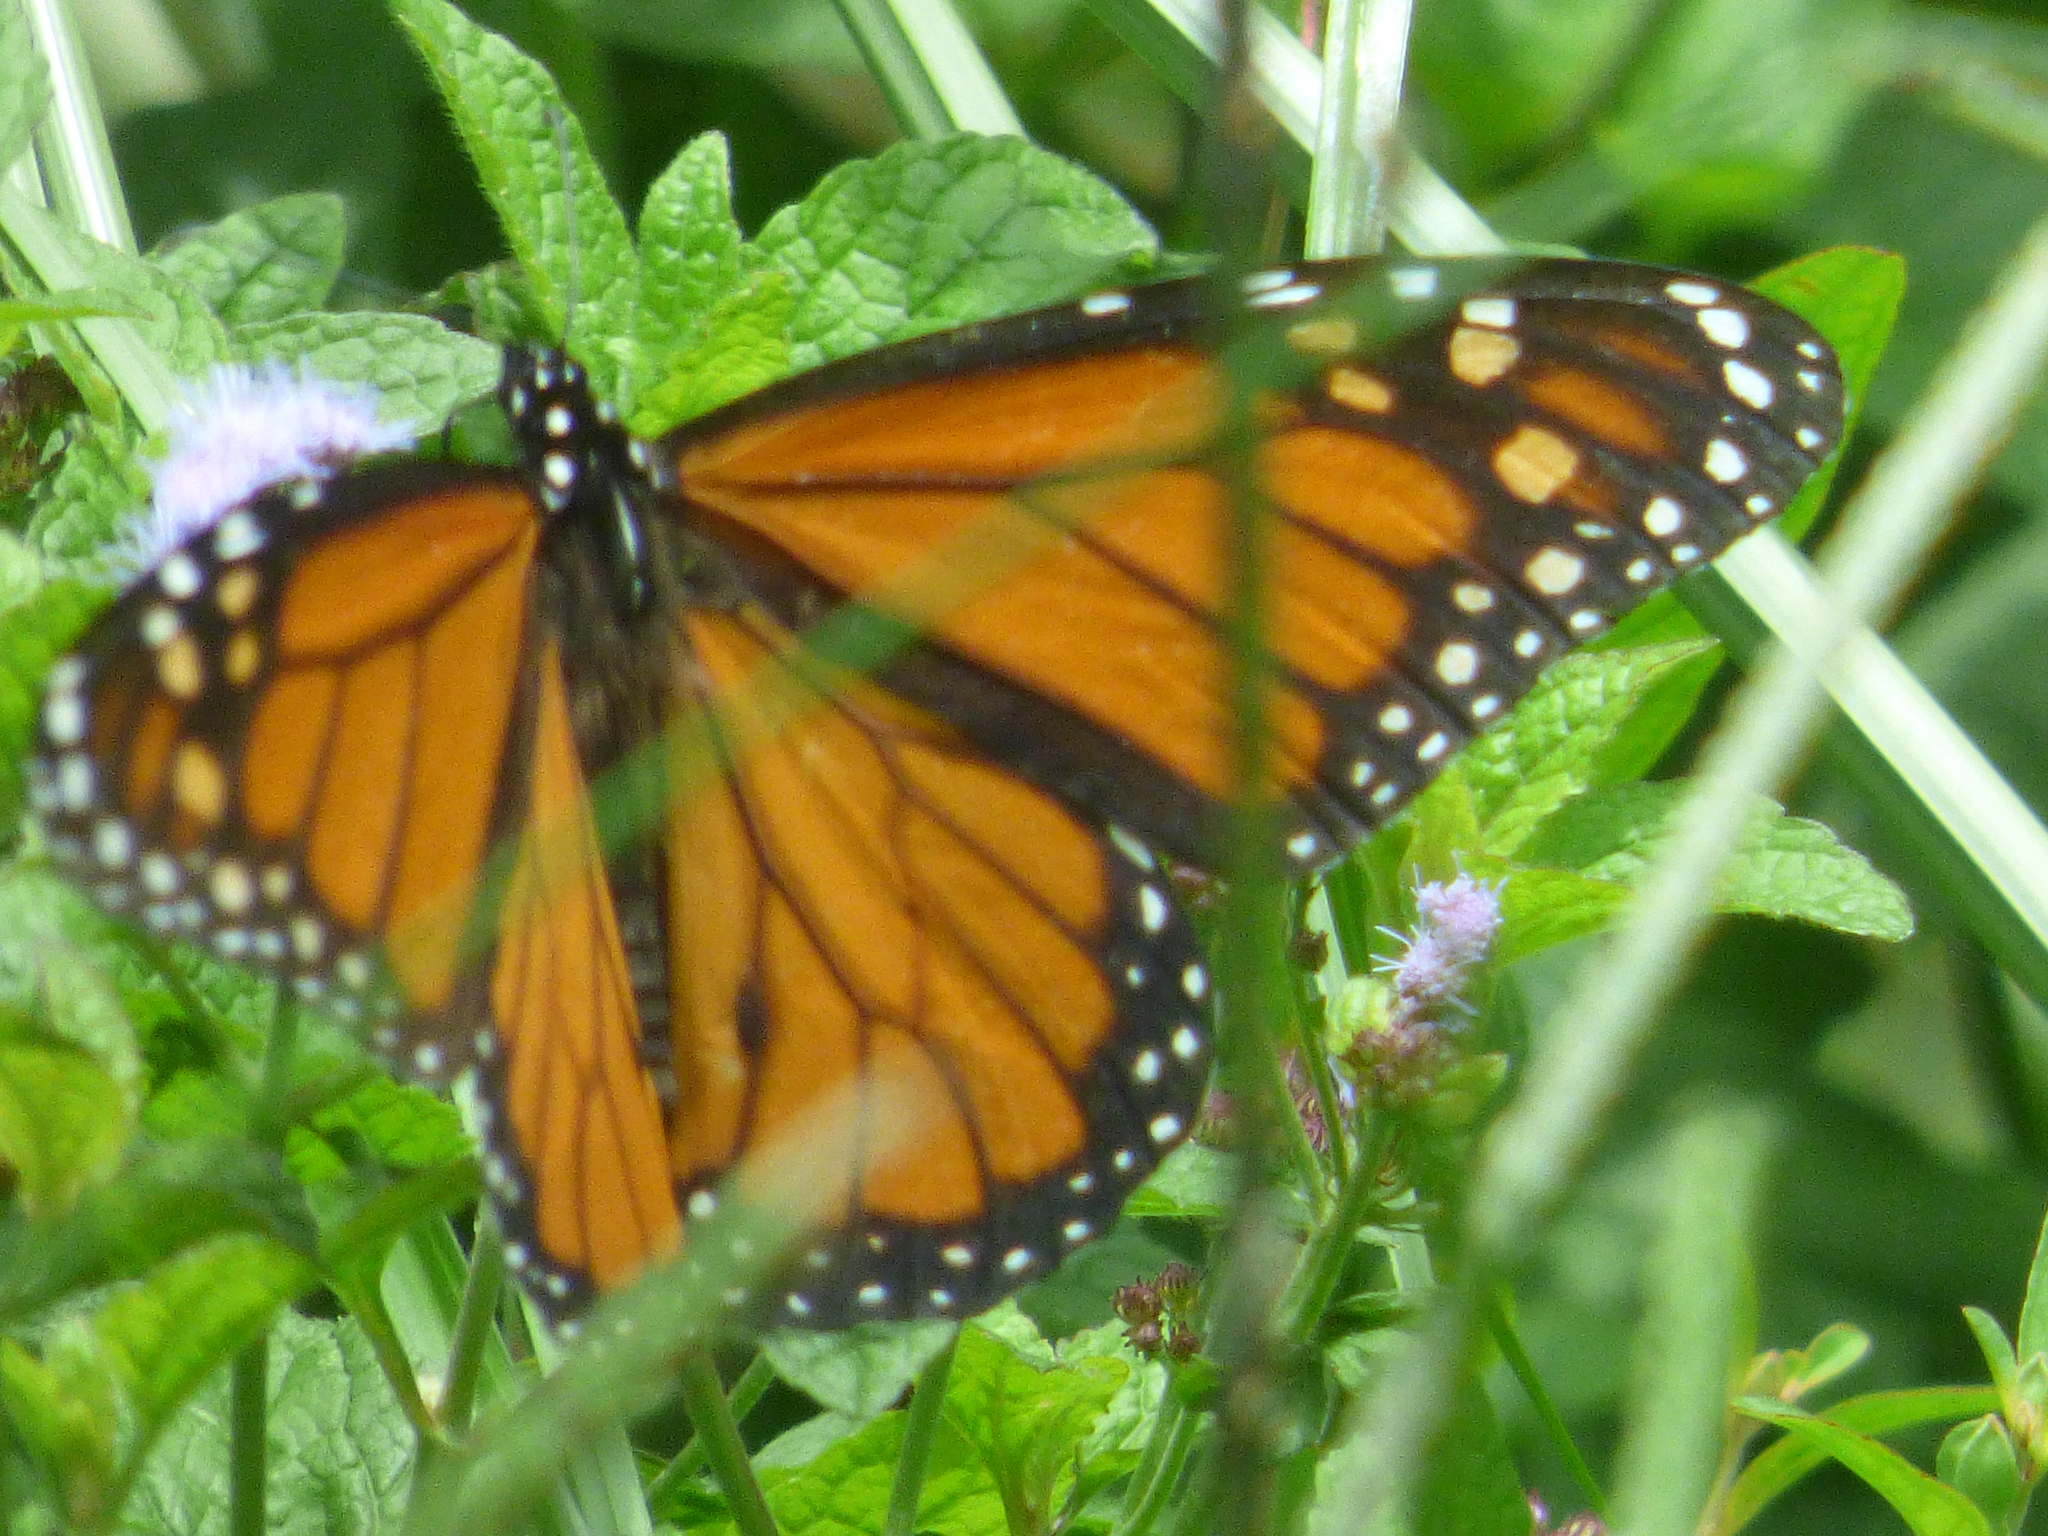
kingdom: Animalia
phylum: Arthropoda
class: Insecta
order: Lepidoptera
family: Nymphalidae
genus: Danaus
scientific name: Danaus plexippus
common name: Monarch
